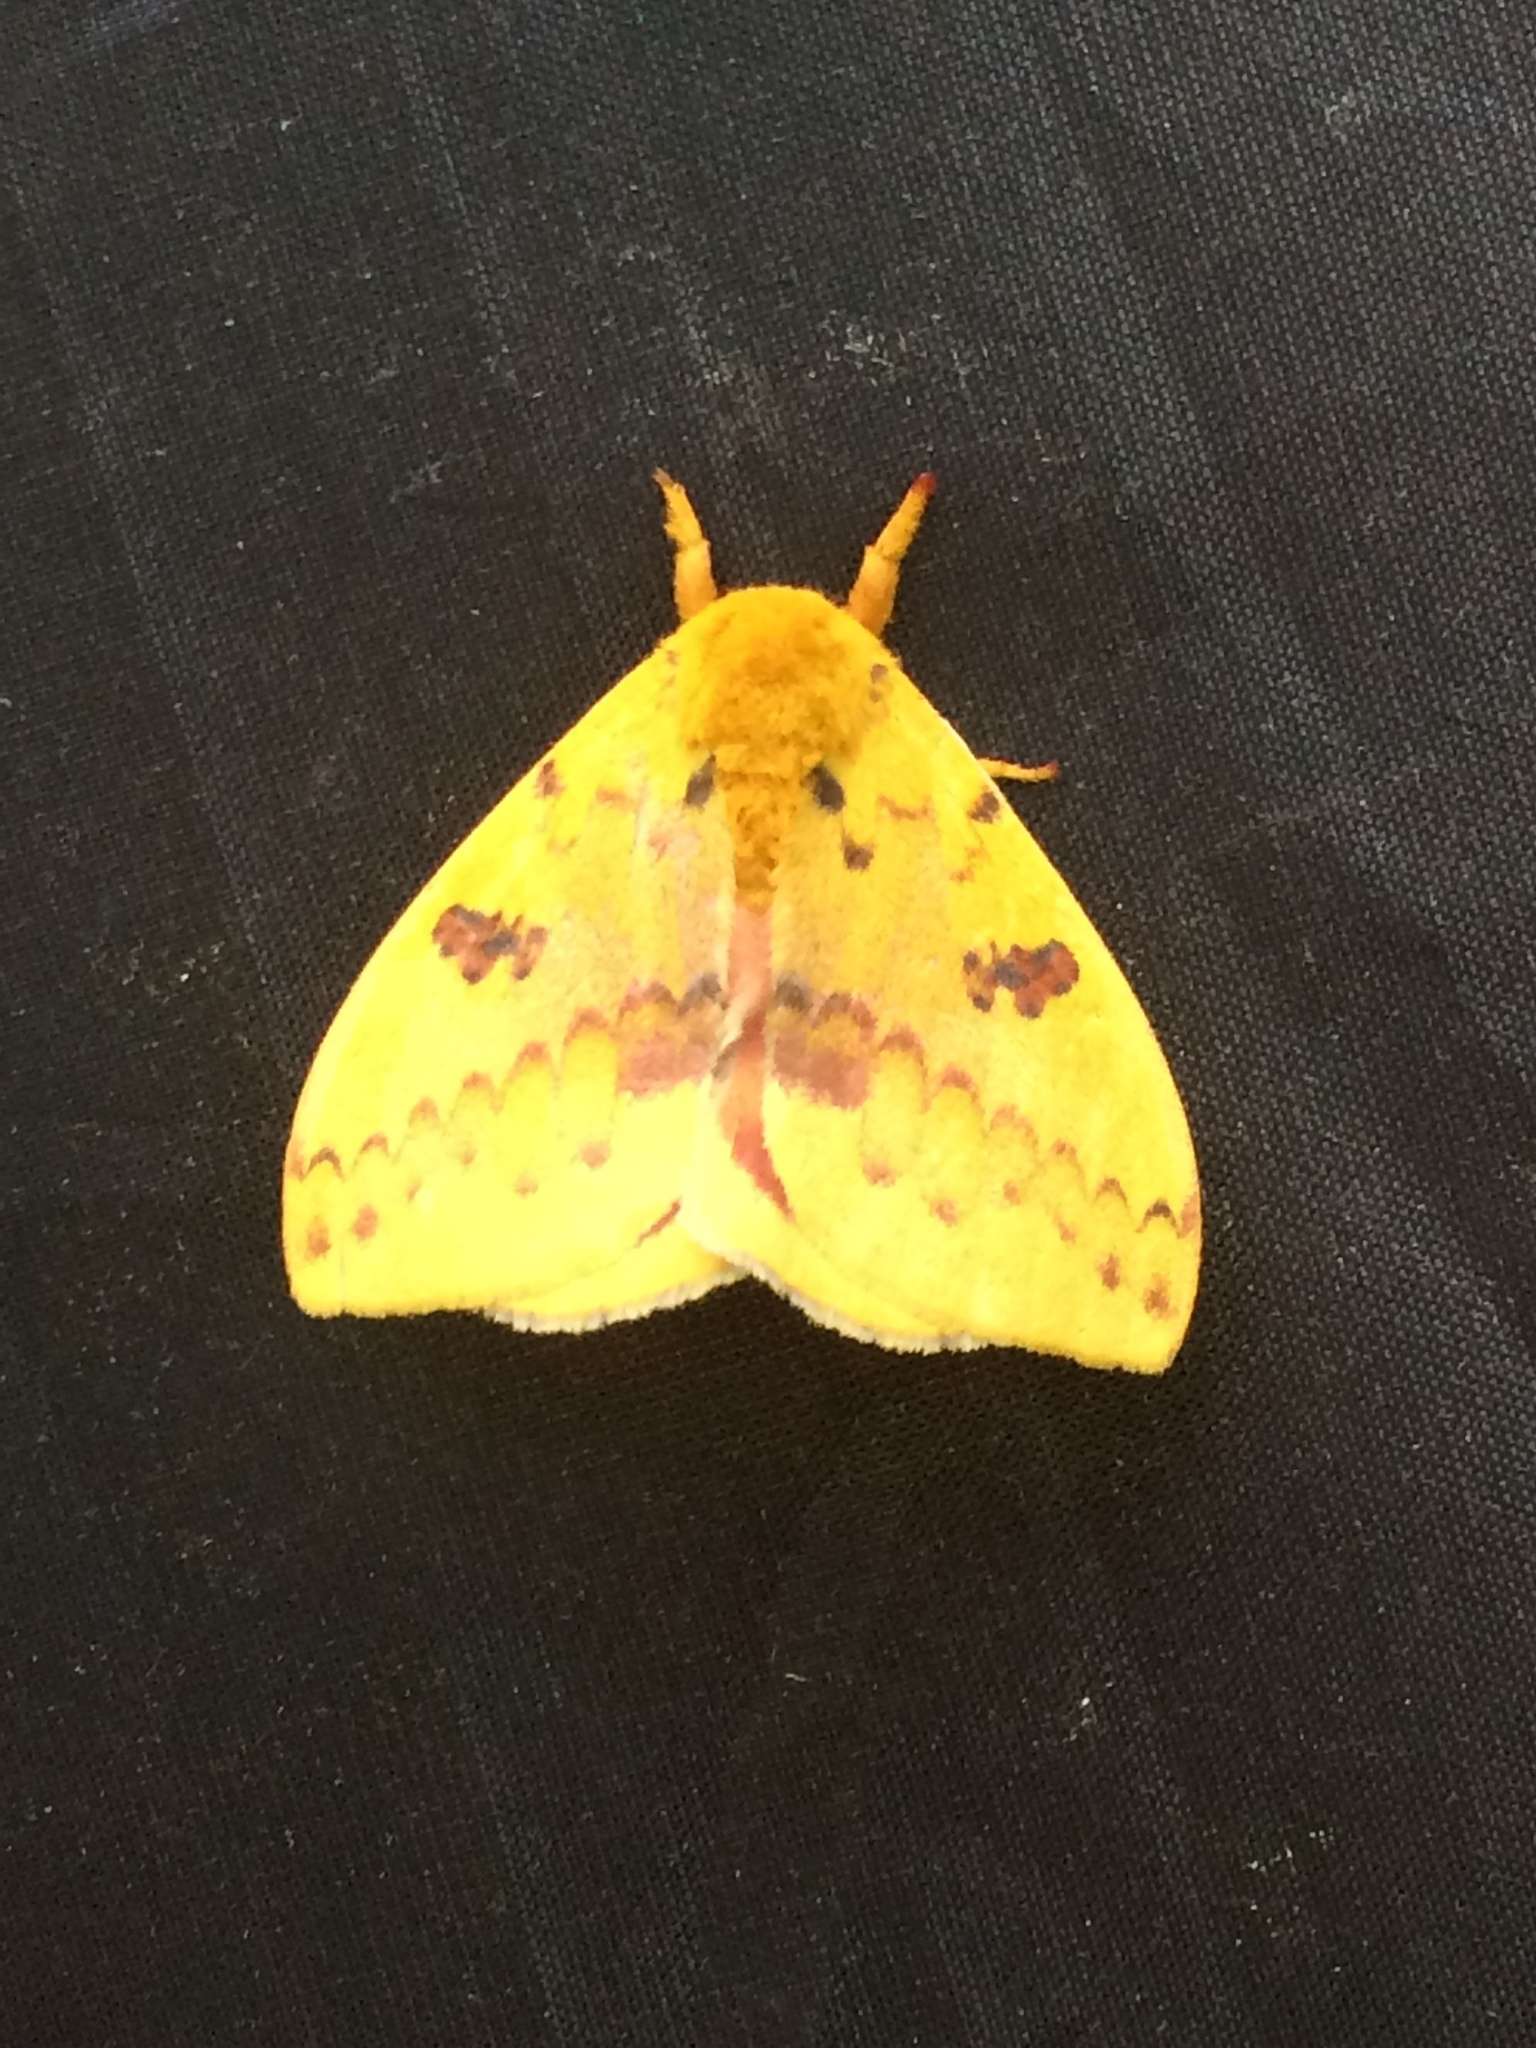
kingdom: Animalia
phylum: Arthropoda
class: Insecta
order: Lepidoptera
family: Saturniidae
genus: Automeris
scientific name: Automeris io
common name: Io moth
